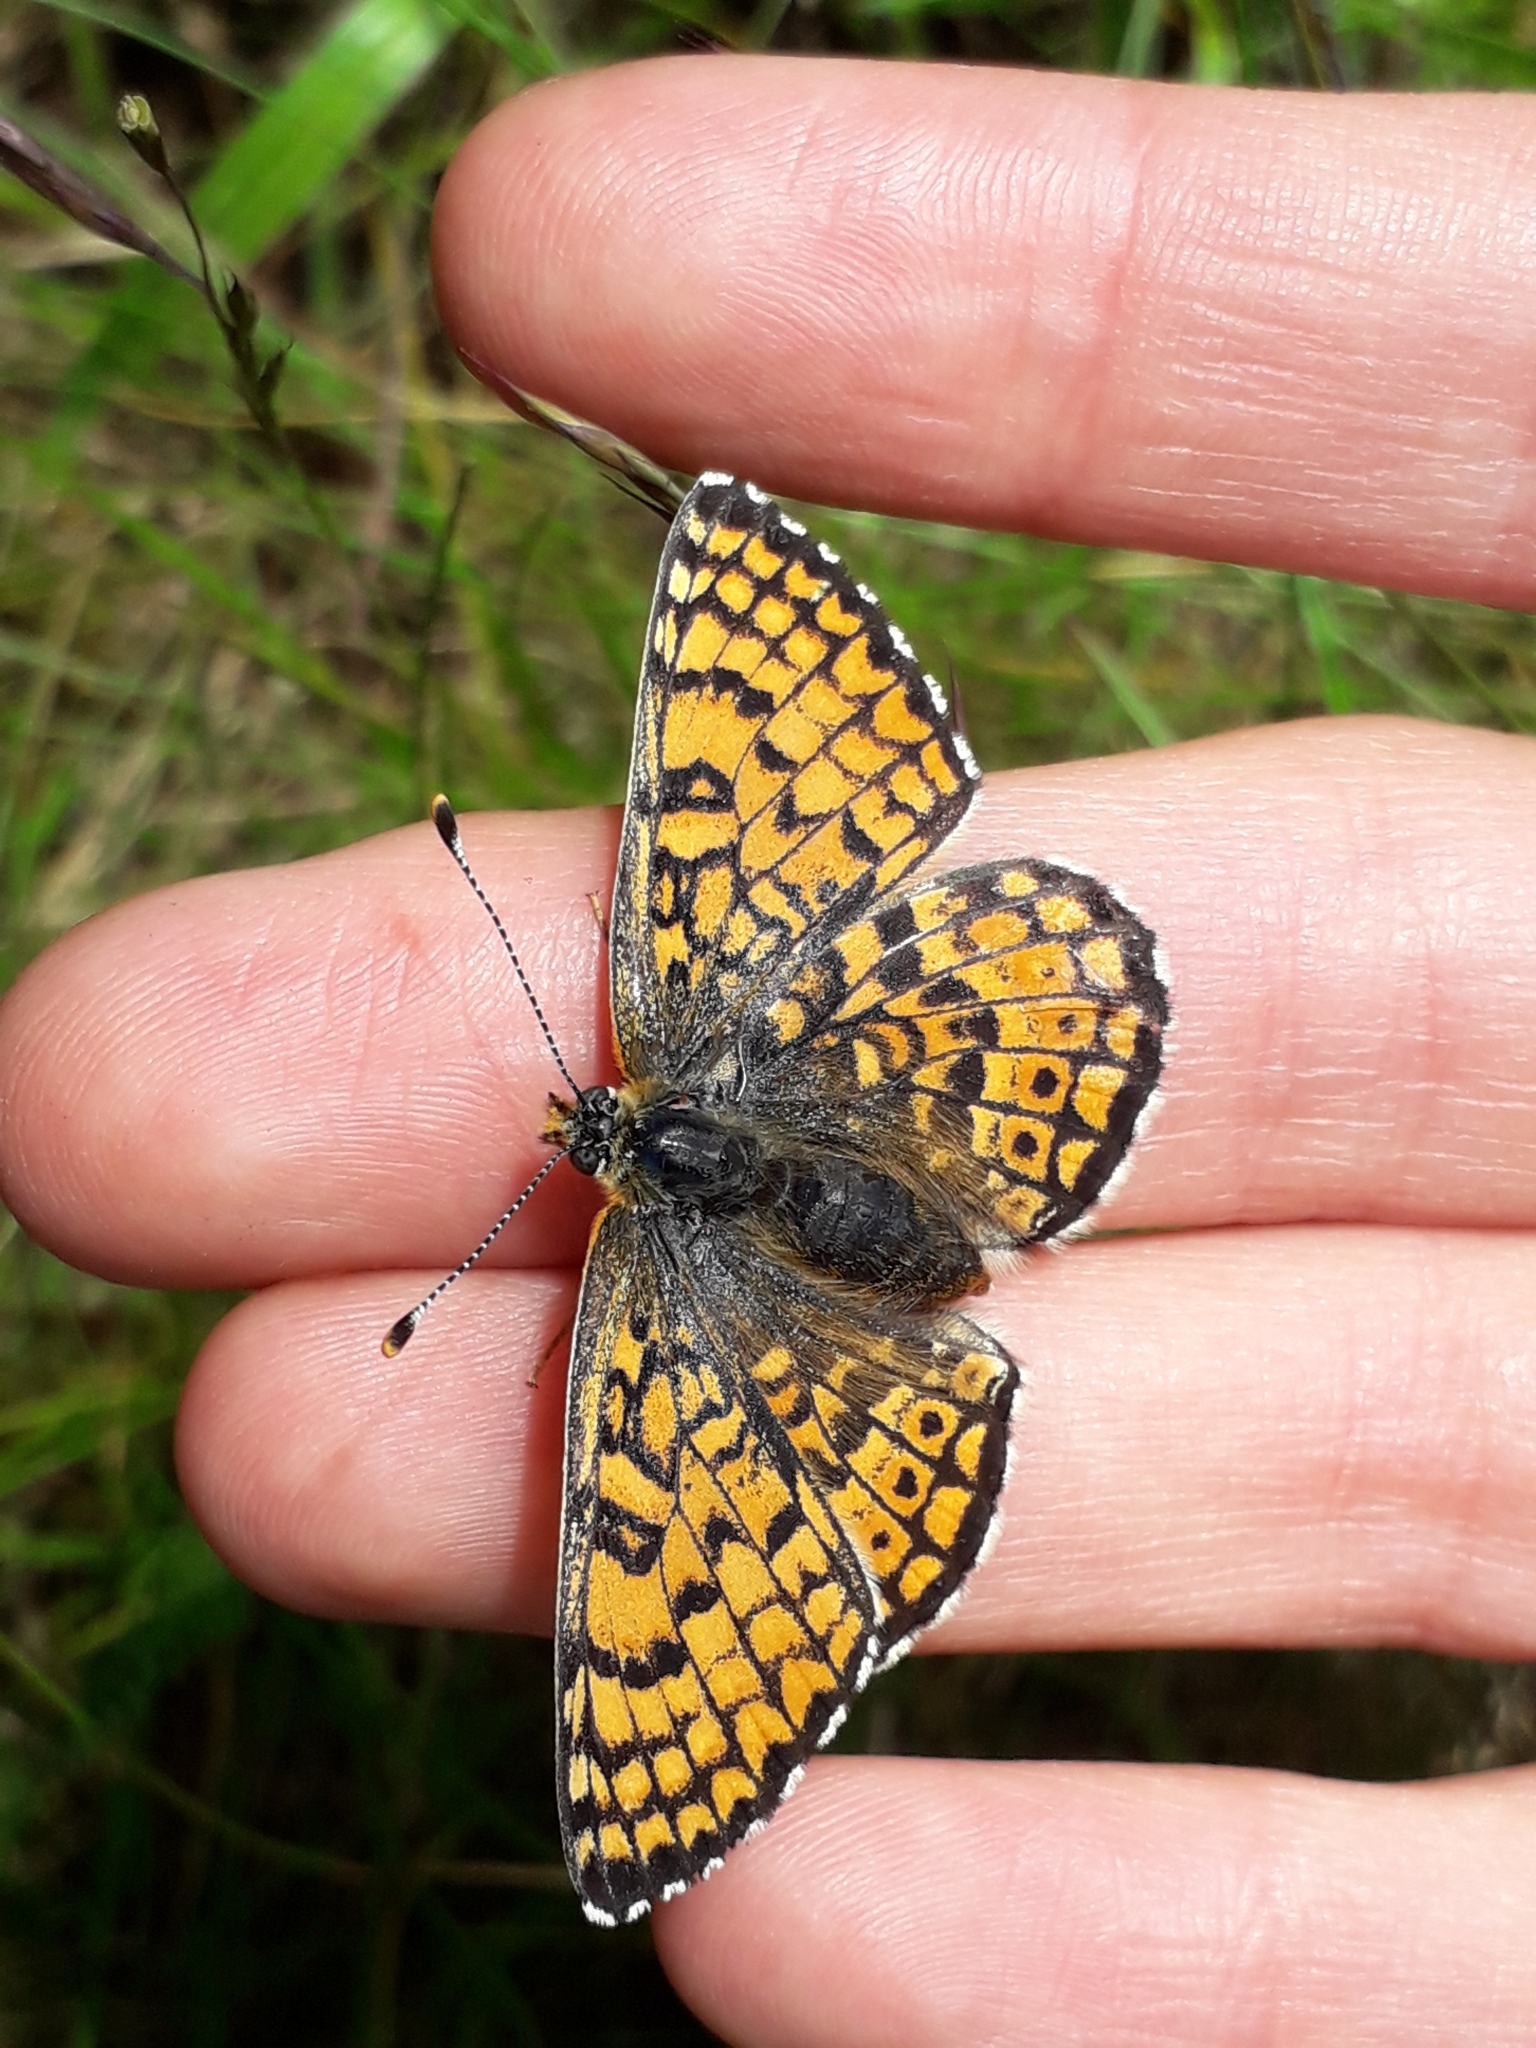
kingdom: Animalia
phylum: Arthropoda
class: Insecta
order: Lepidoptera
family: Nymphalidae
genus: Melitaea
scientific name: Melitaea cinxia
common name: Glanville fritillary
